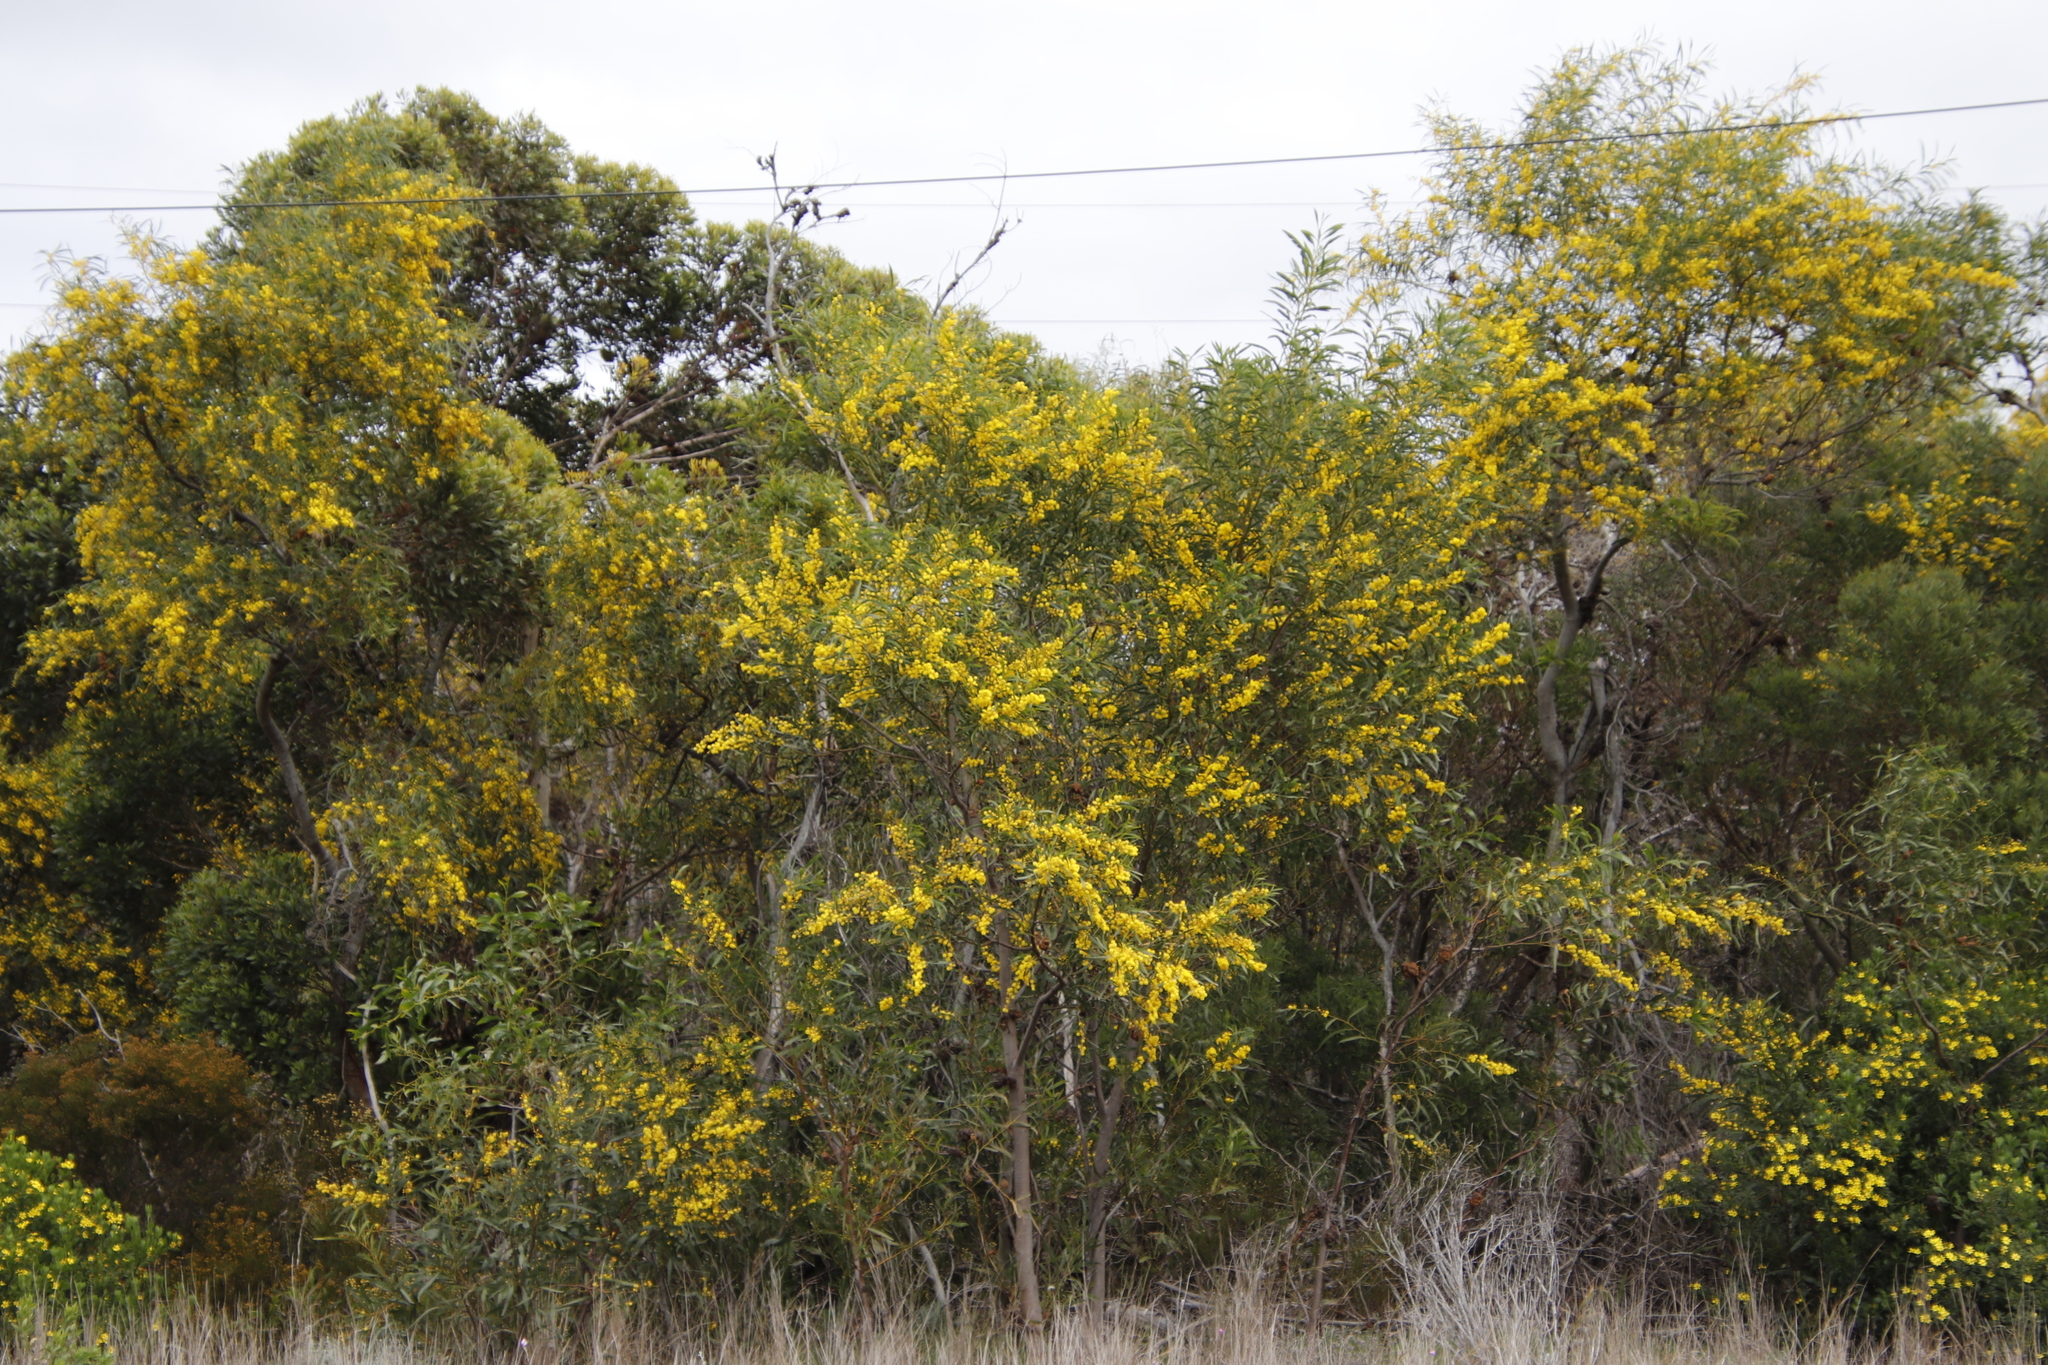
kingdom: Plantae
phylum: Tracheophyta
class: Magnoliopsida
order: Fabales
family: Fabaceae
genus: Acacia
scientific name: Acacia saligna
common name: Orange wattle
